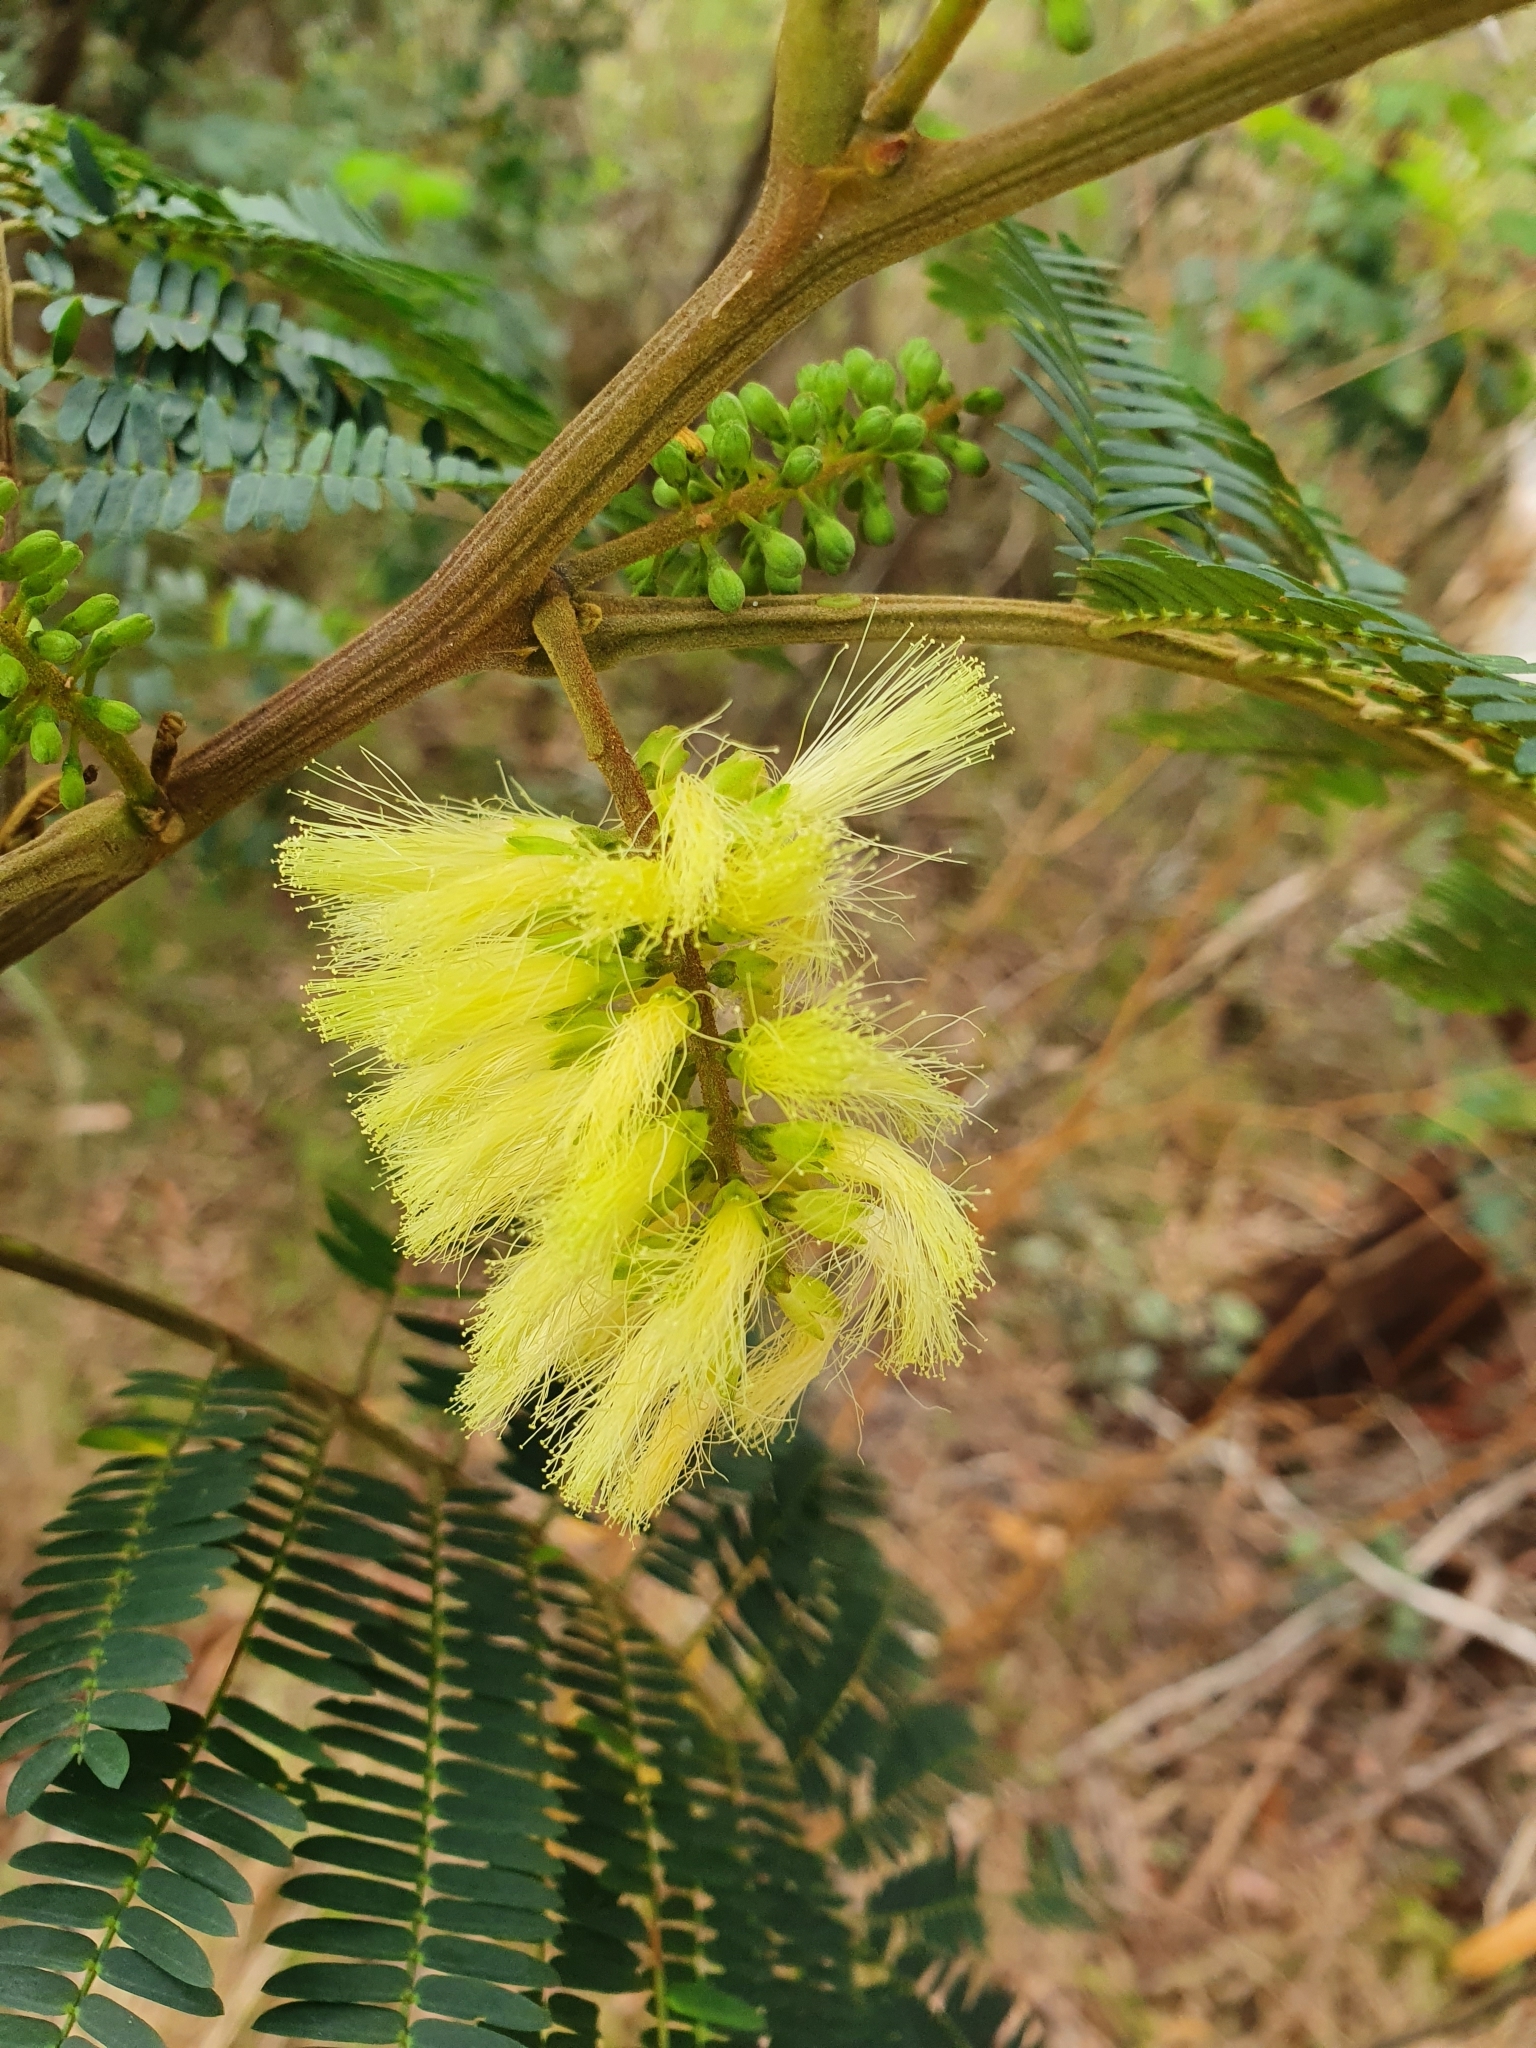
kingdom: Plantae
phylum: Tracheophyta
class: Magnoliopsida
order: Fabales
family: Fabaceae
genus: Paraserianthes
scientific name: Paraserianthes lophantha
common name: Plume albizia
